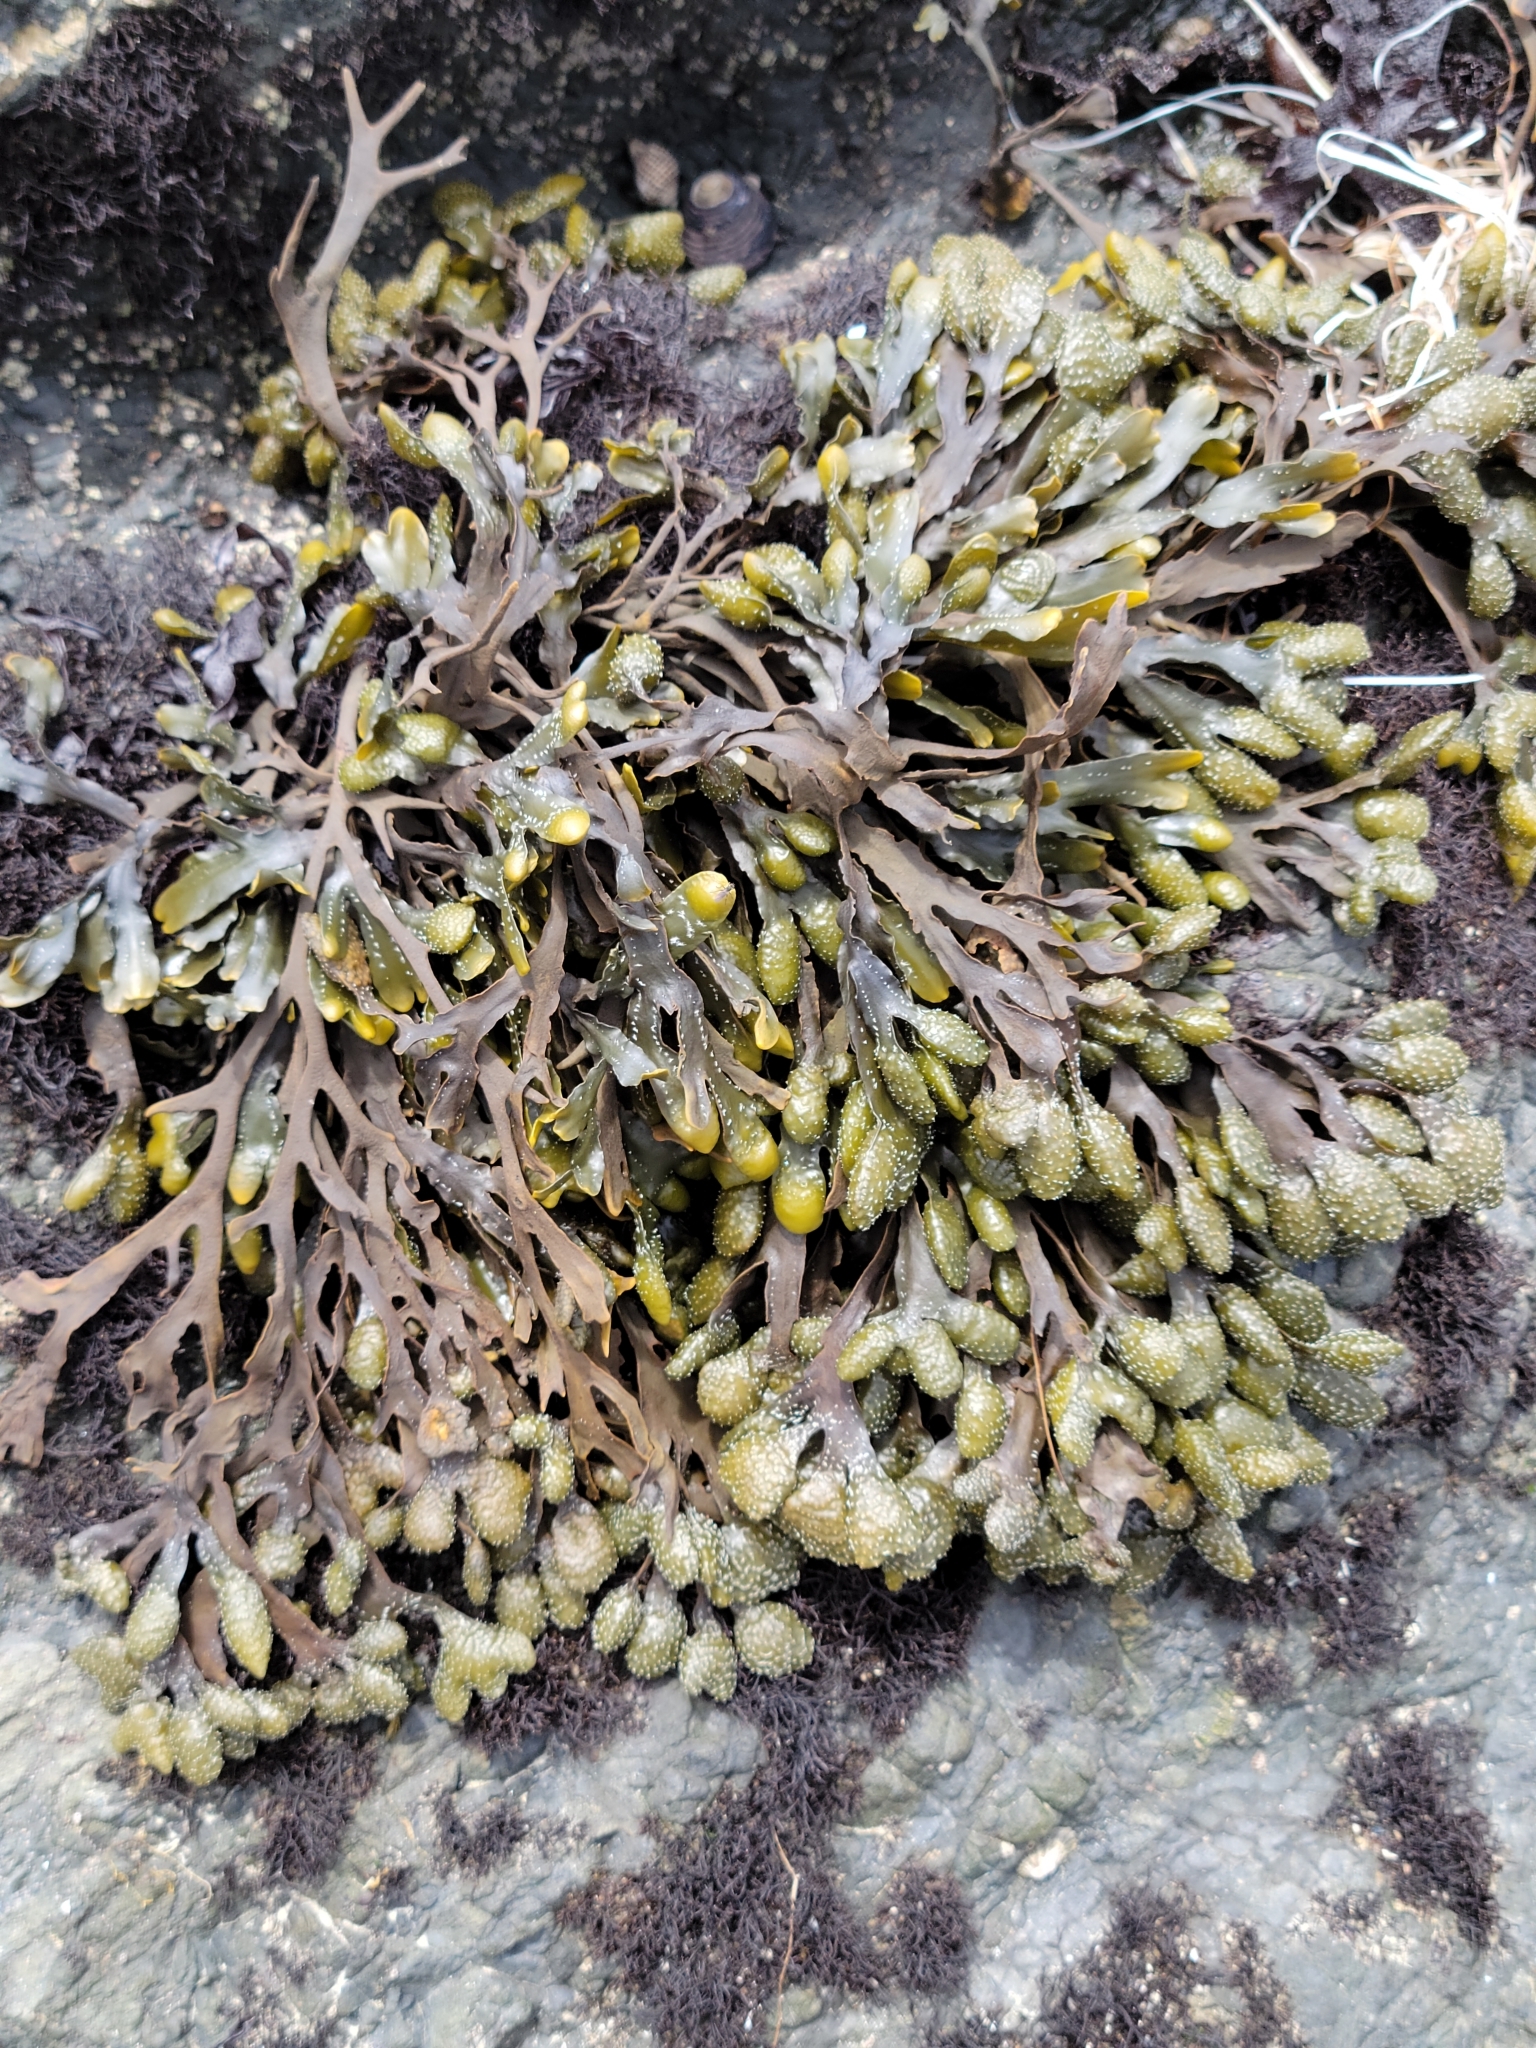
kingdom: Chromista
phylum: Ochrophyta
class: Phaeophyceae
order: Fucales
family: Fucaceae
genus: Pelvetiopsis
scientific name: Pelvetiopsis
